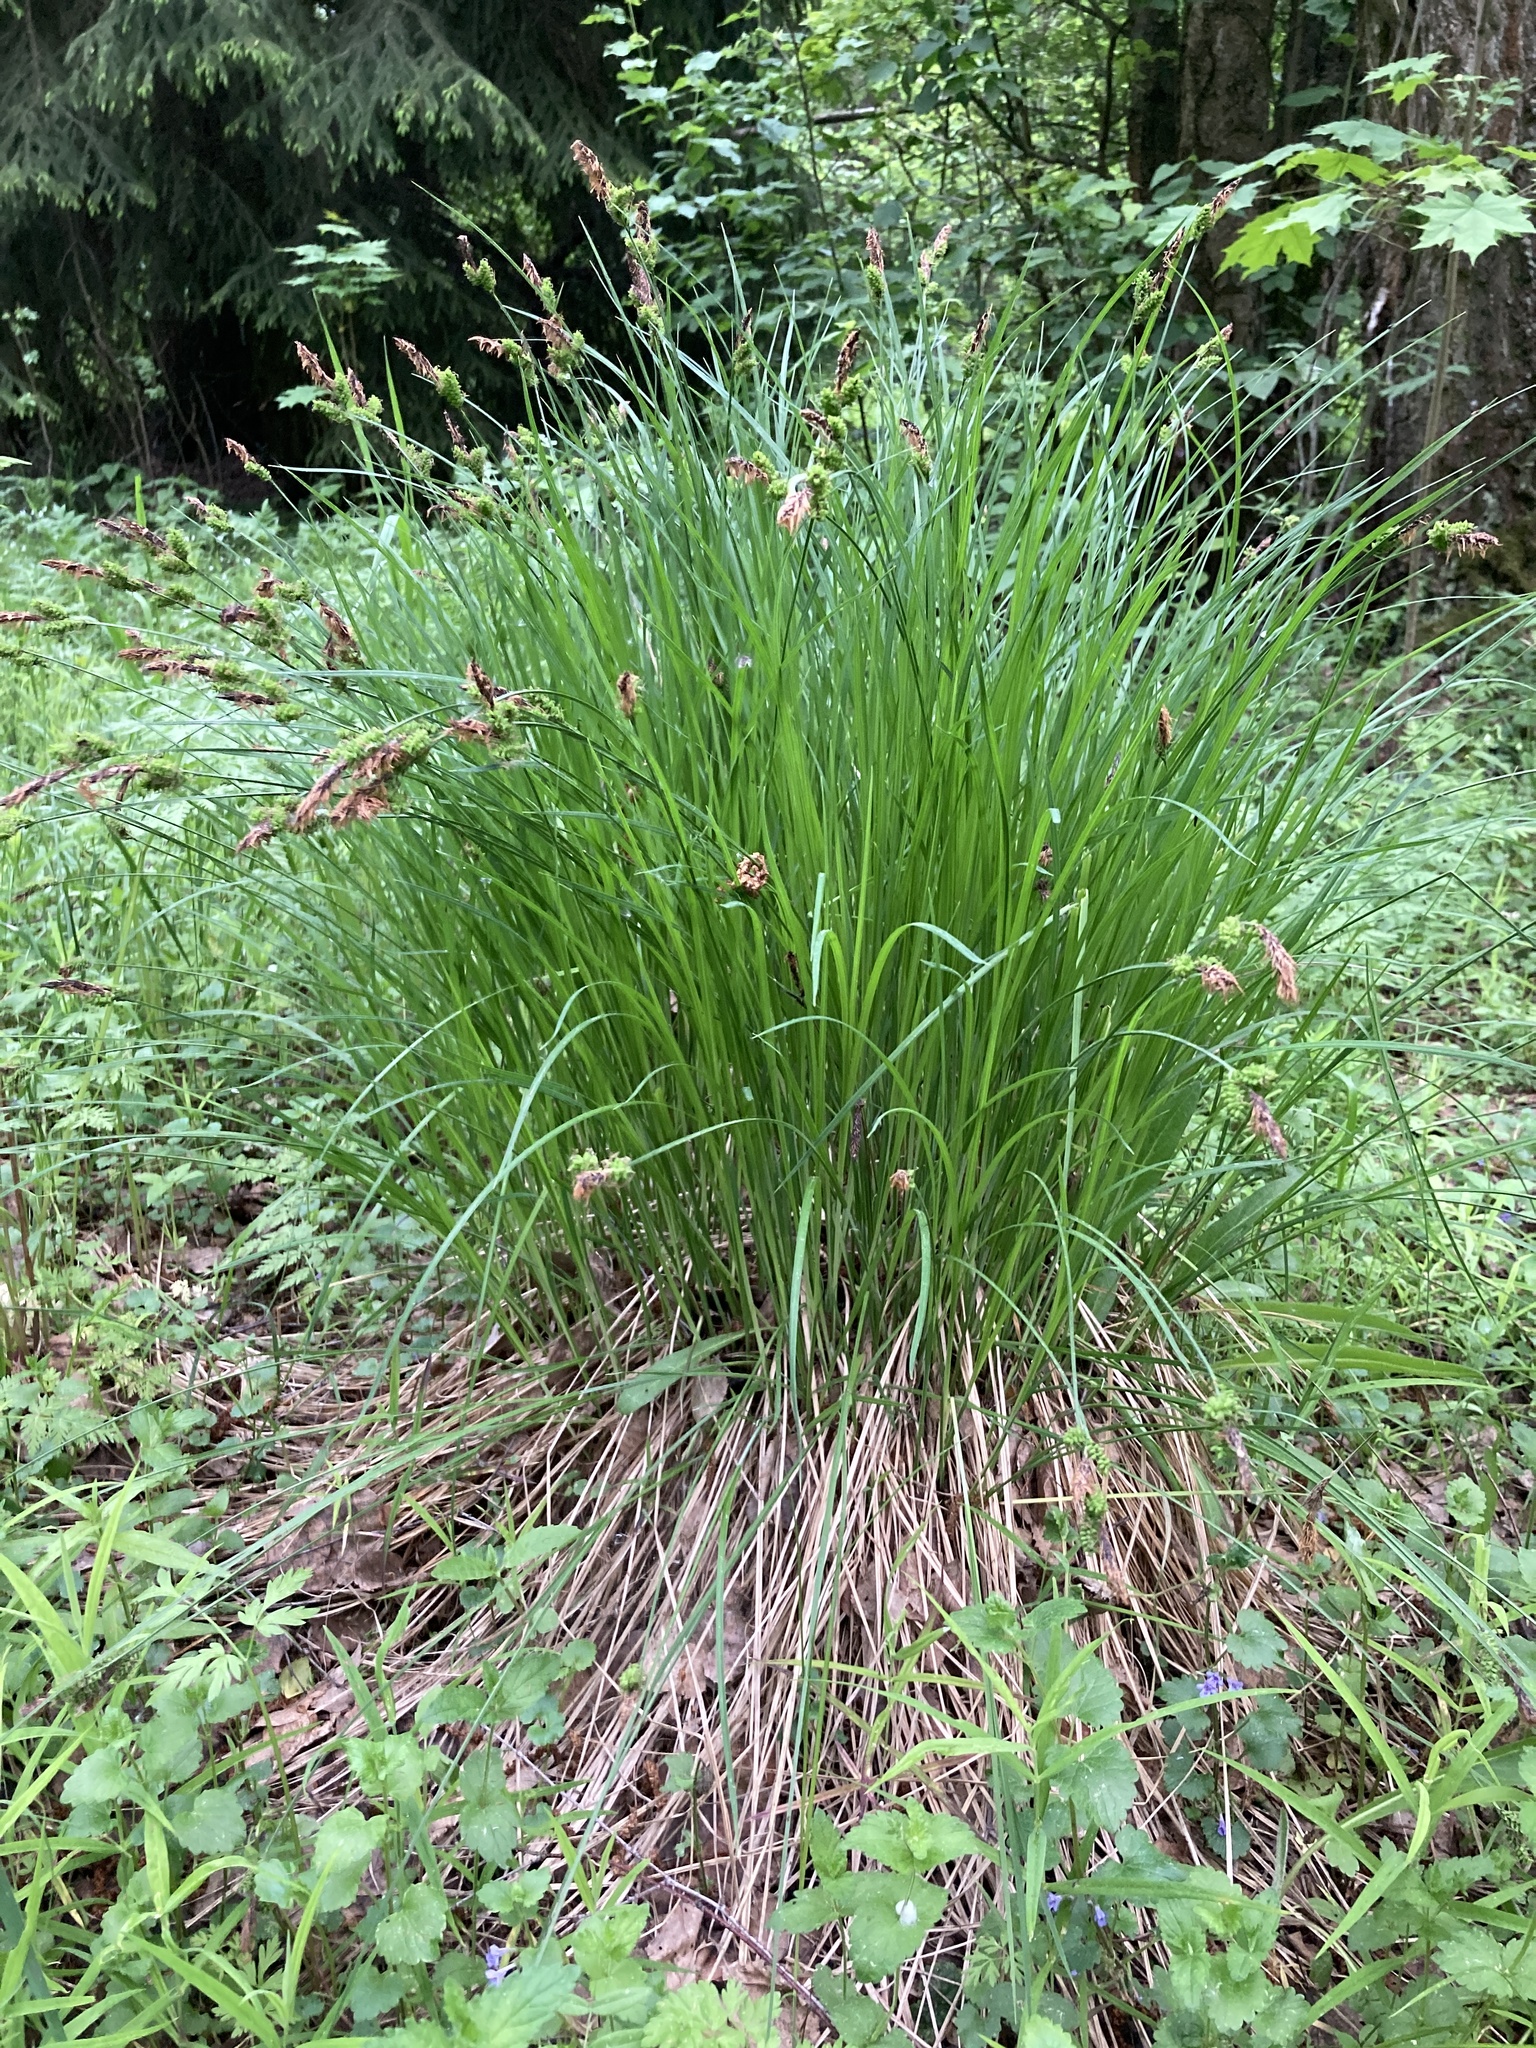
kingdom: Plantae
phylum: Tracheophyta
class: Liliopsida
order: Poales
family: Cyperaceae
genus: Carex
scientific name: Carex cespitosa
